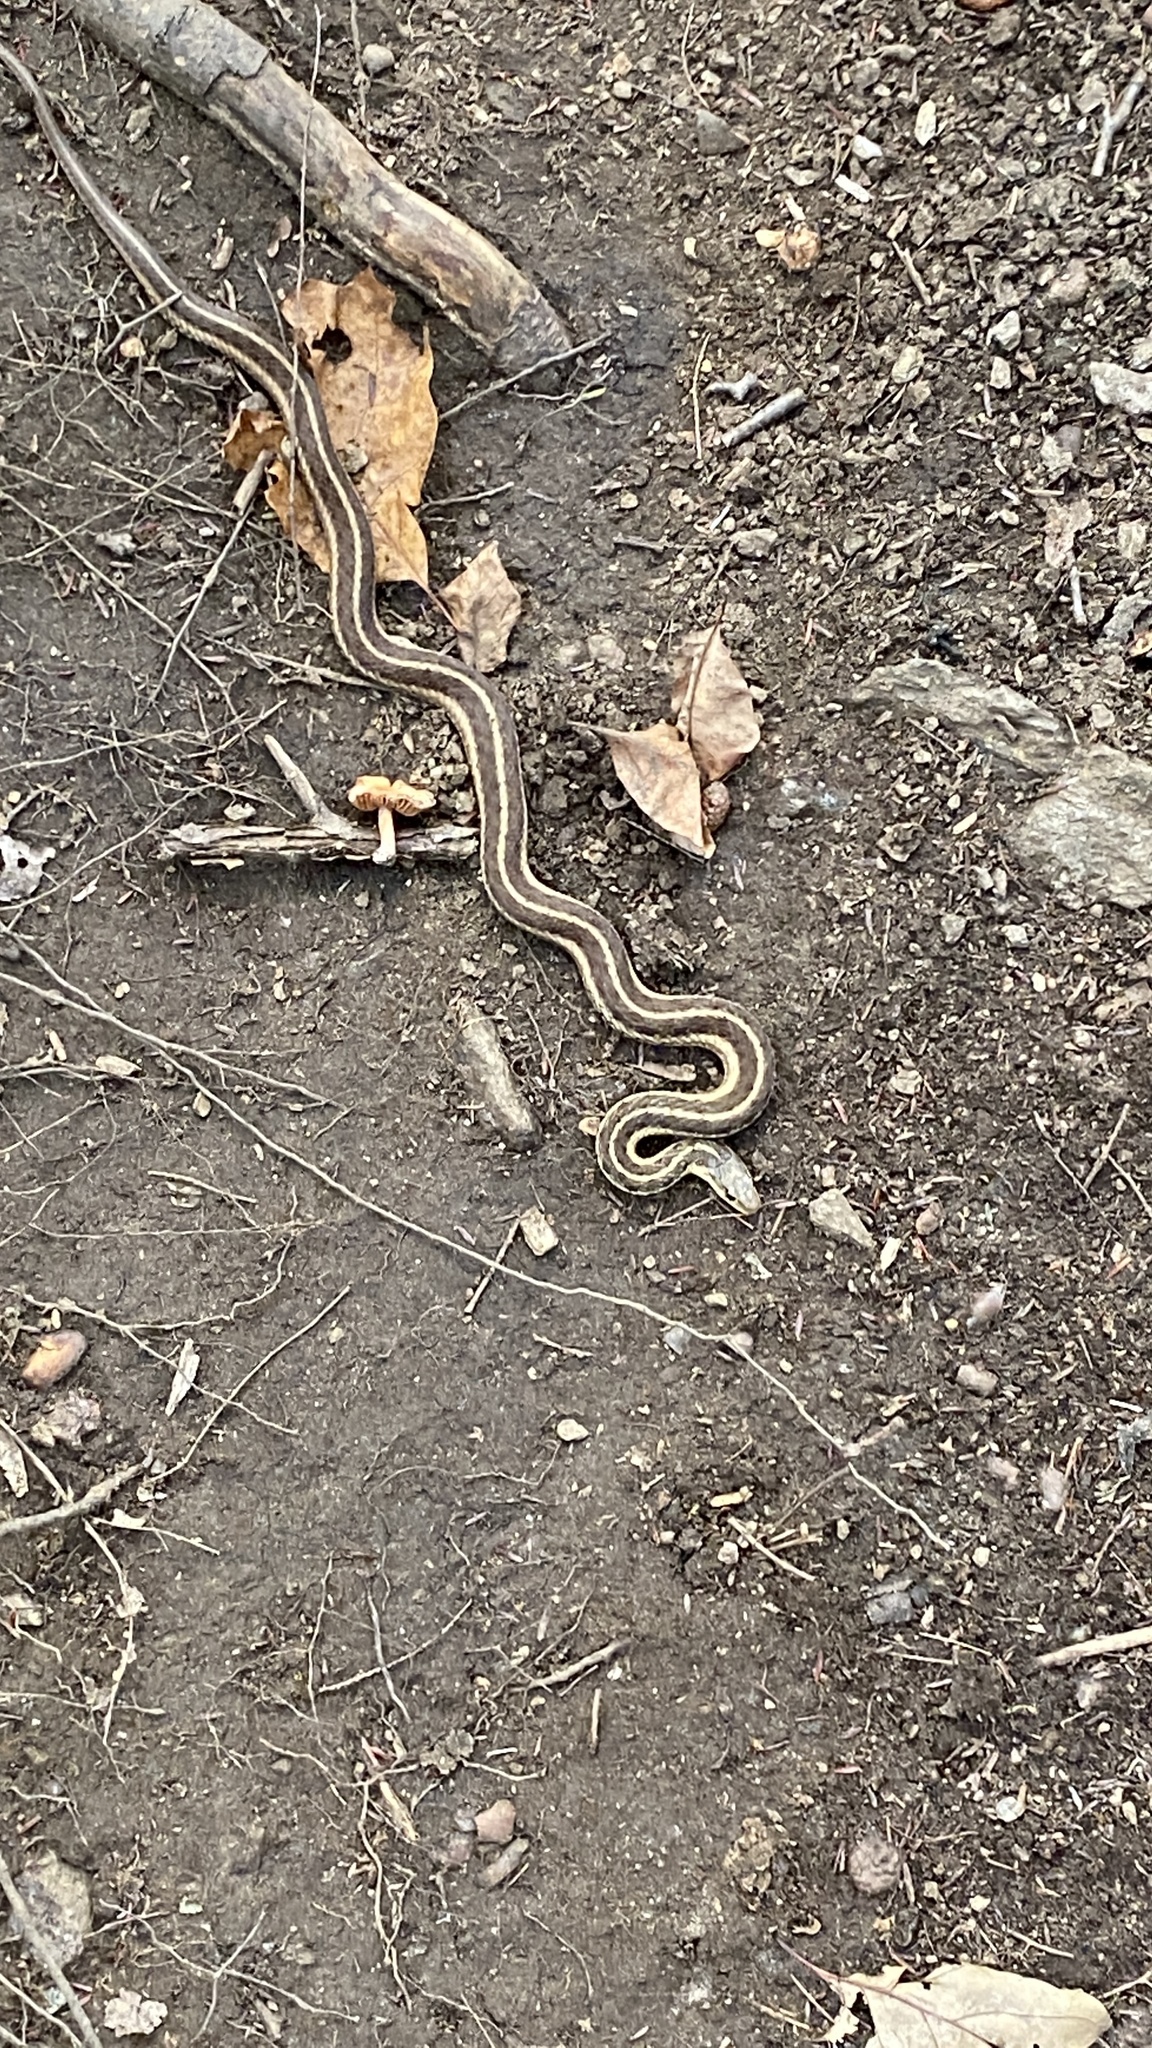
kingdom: Animalia
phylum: Chordata
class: Squamata
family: Colubridae
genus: Thamnophis
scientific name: Thamnophis sirtalis
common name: Common garter snake
